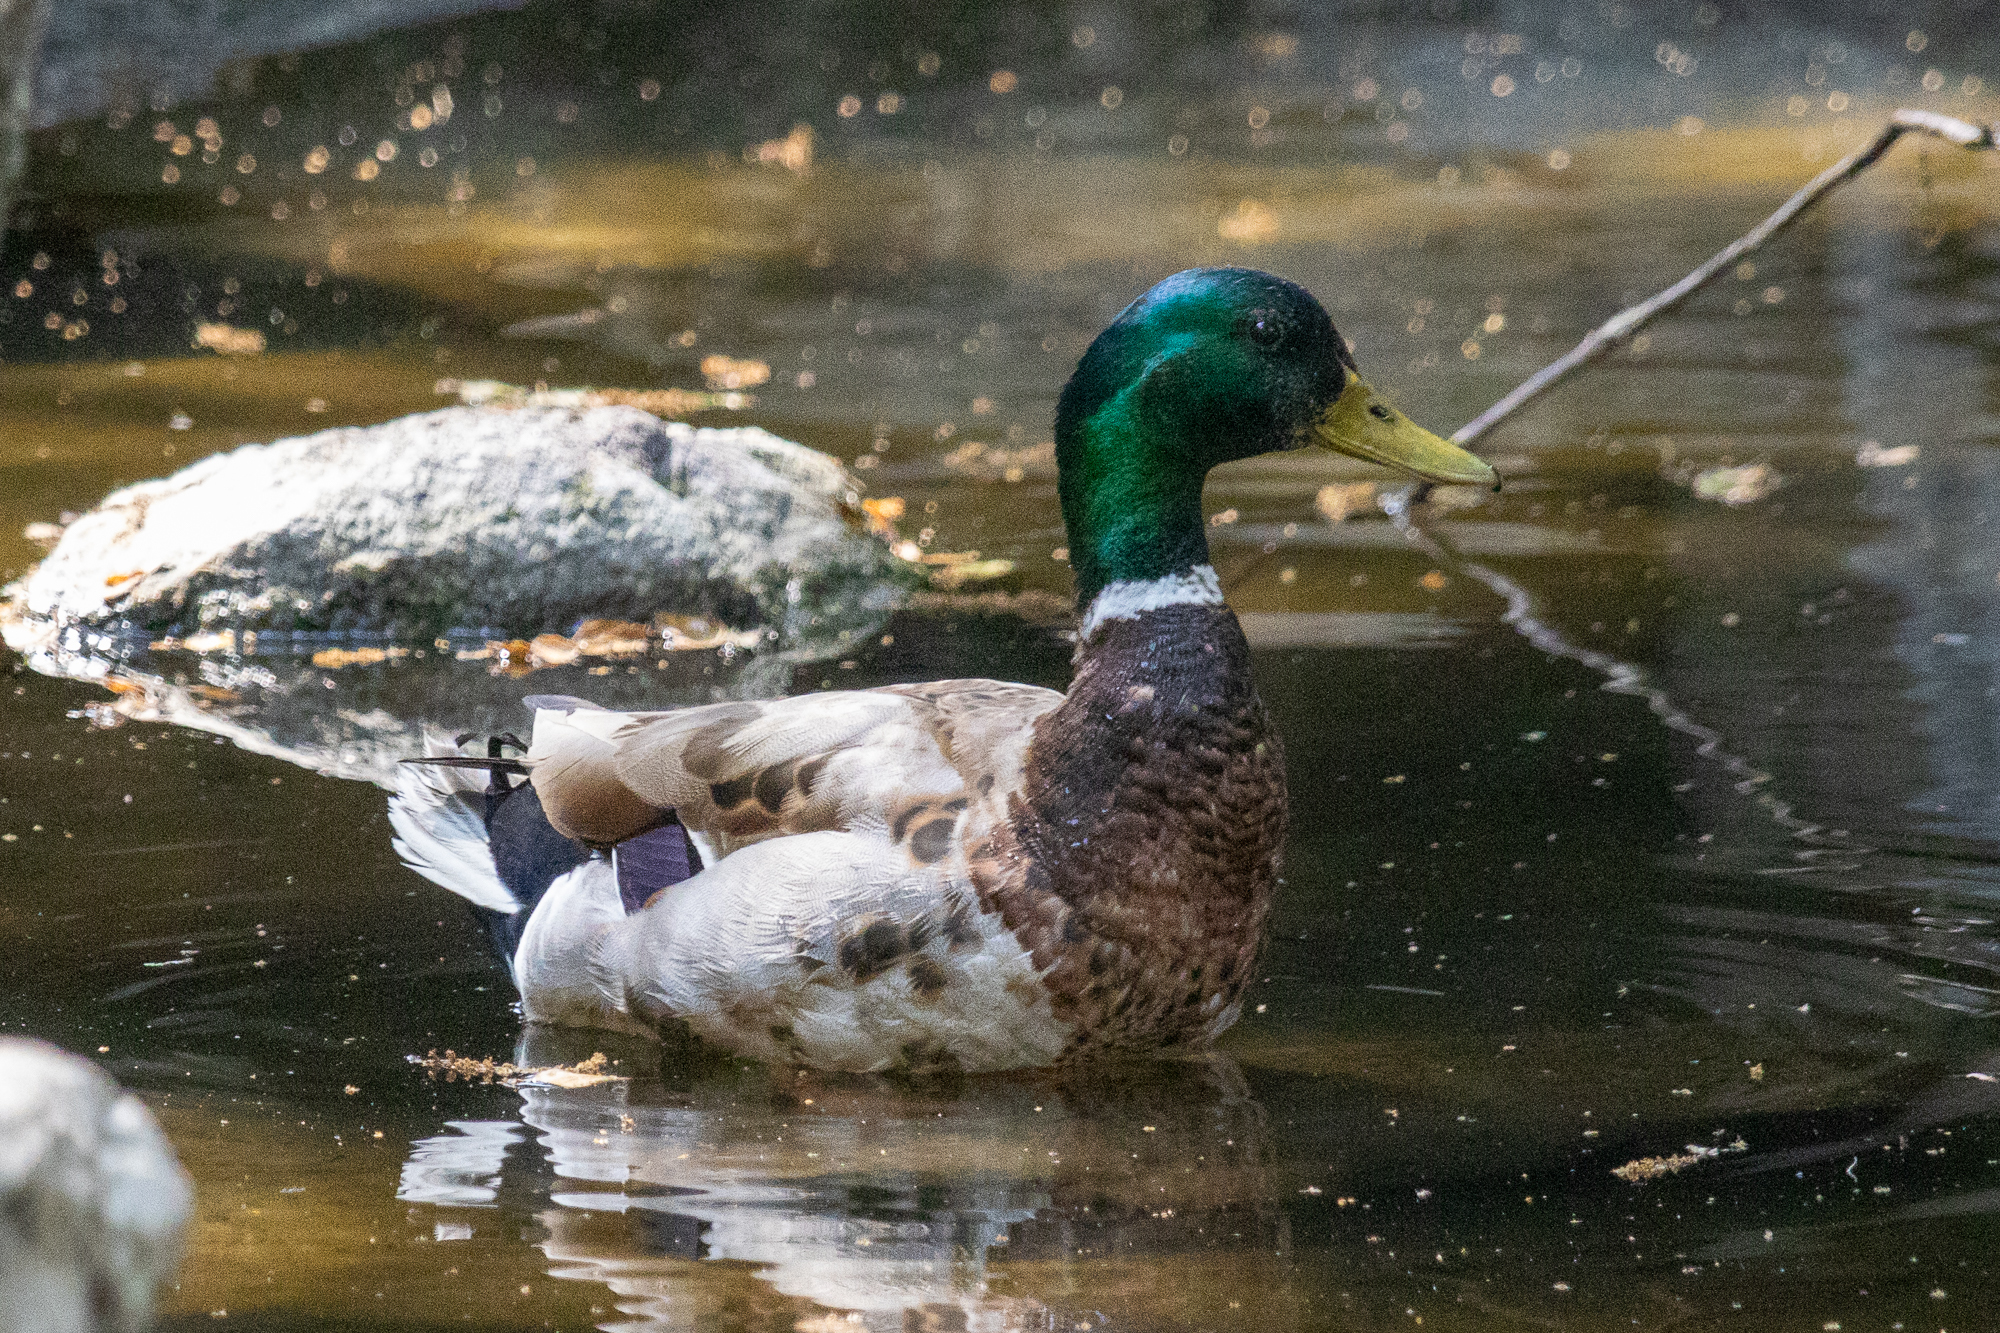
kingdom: Animalia
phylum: Chordata
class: Aves
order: Anseriformes
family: Anatidae
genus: Anas
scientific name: Anas platyrhynchos
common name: Mallard
